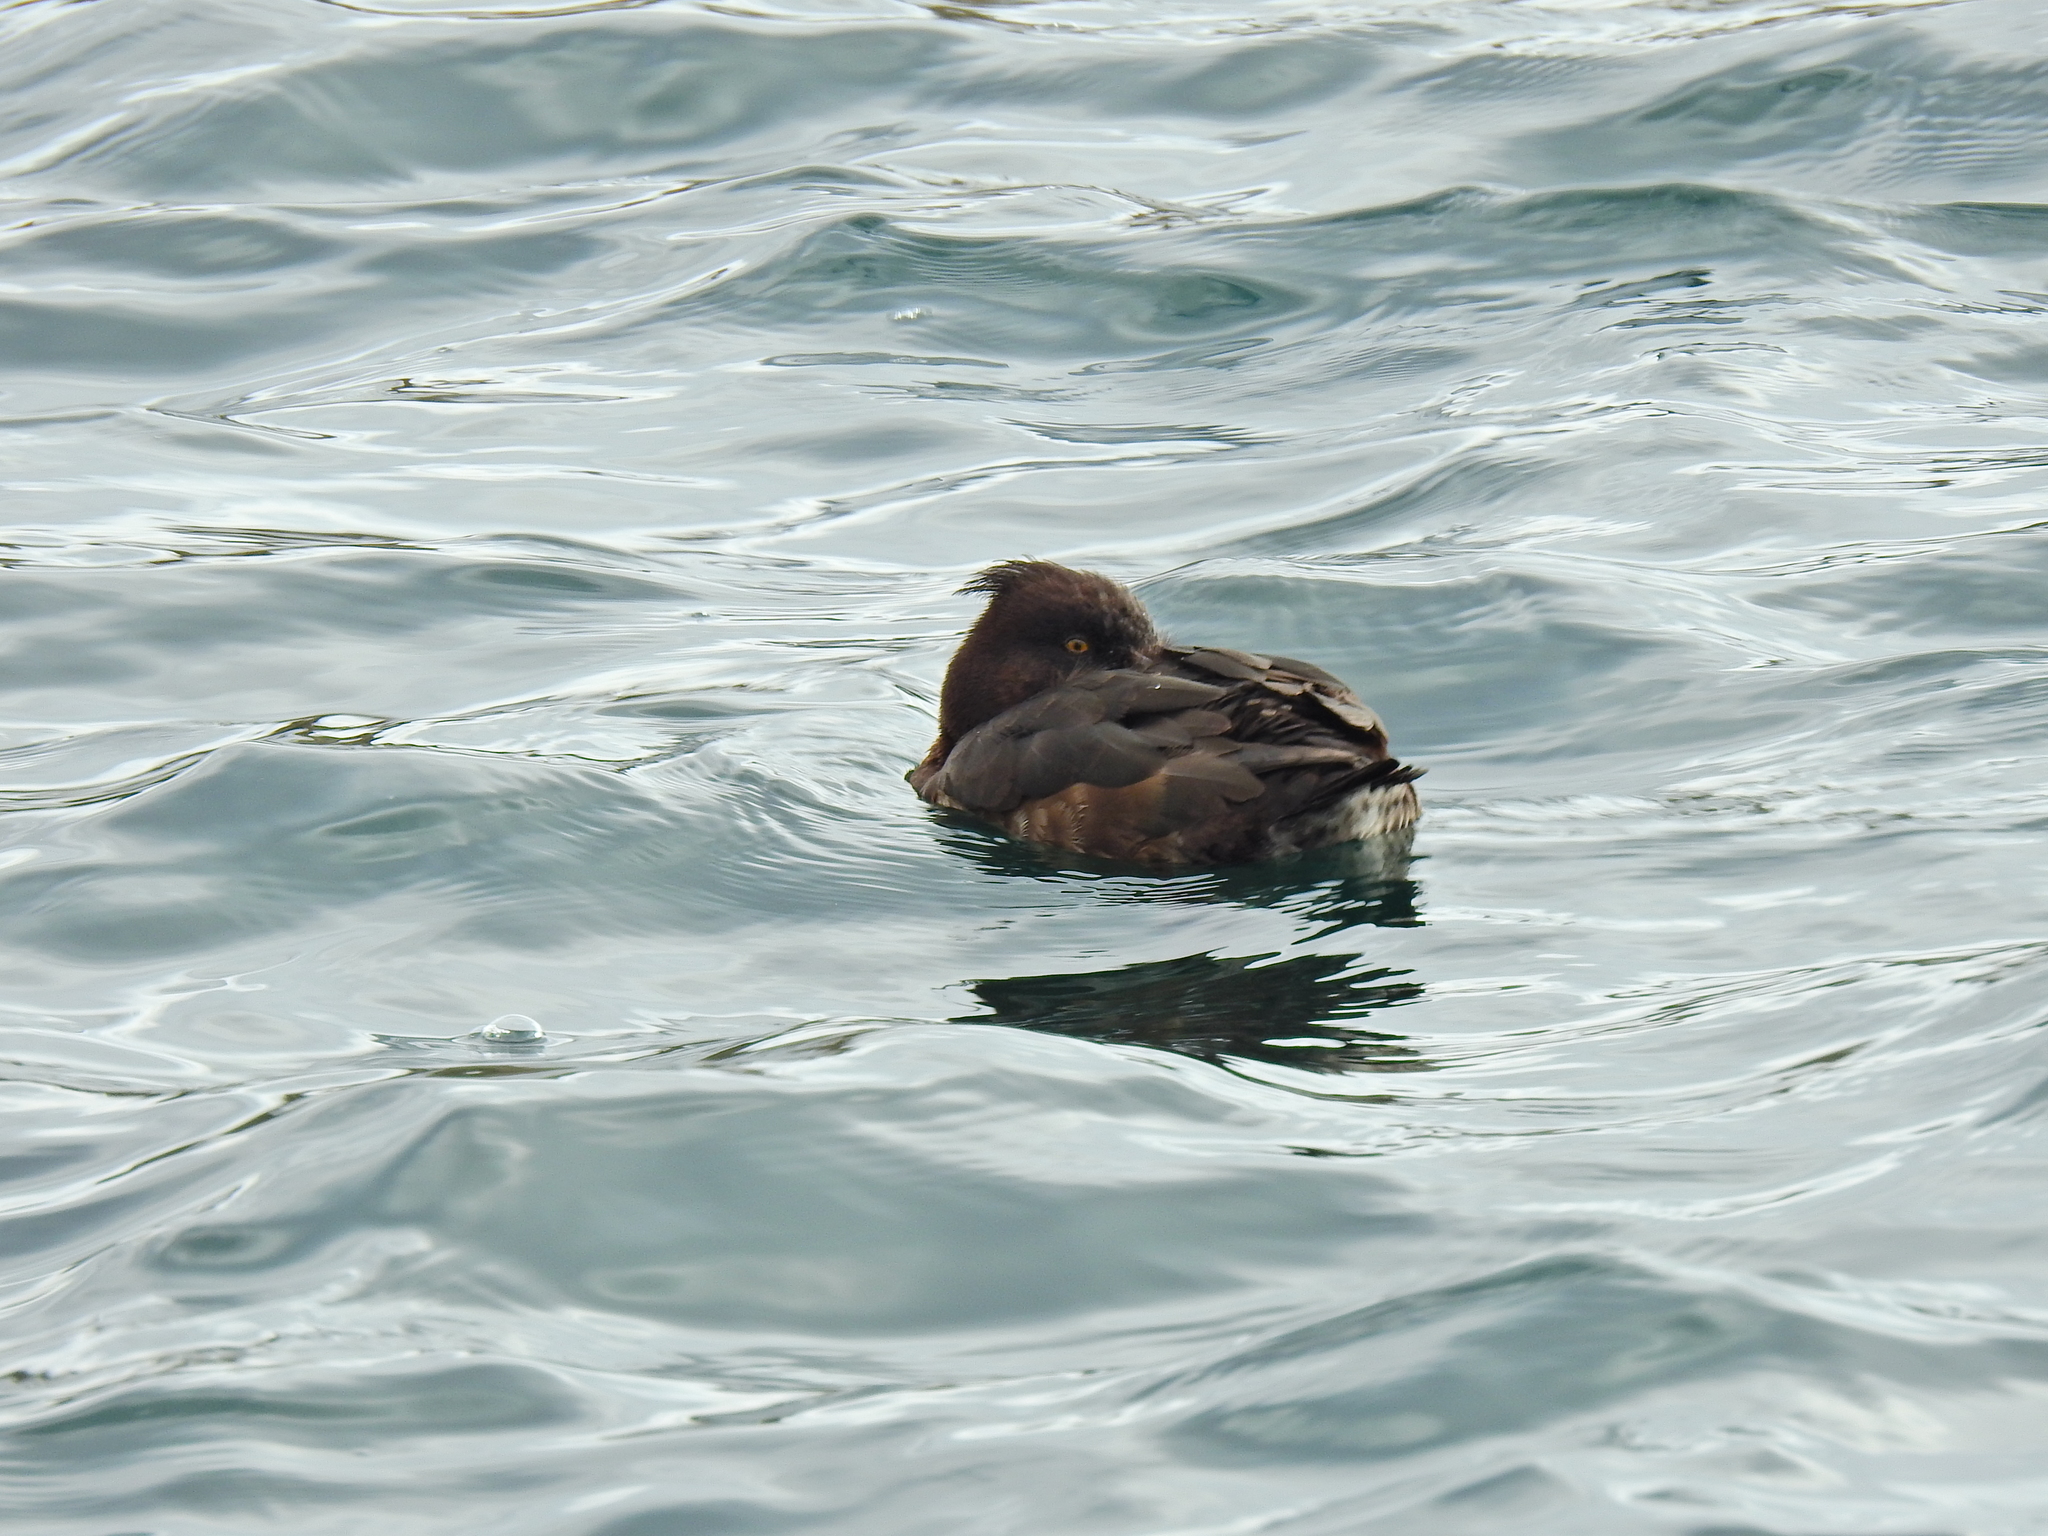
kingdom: Animalia
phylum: Chordata
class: Aves
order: Anseriformes
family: Anatidae
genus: Aythya
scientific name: Aythya fuligula
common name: Tufted duck
